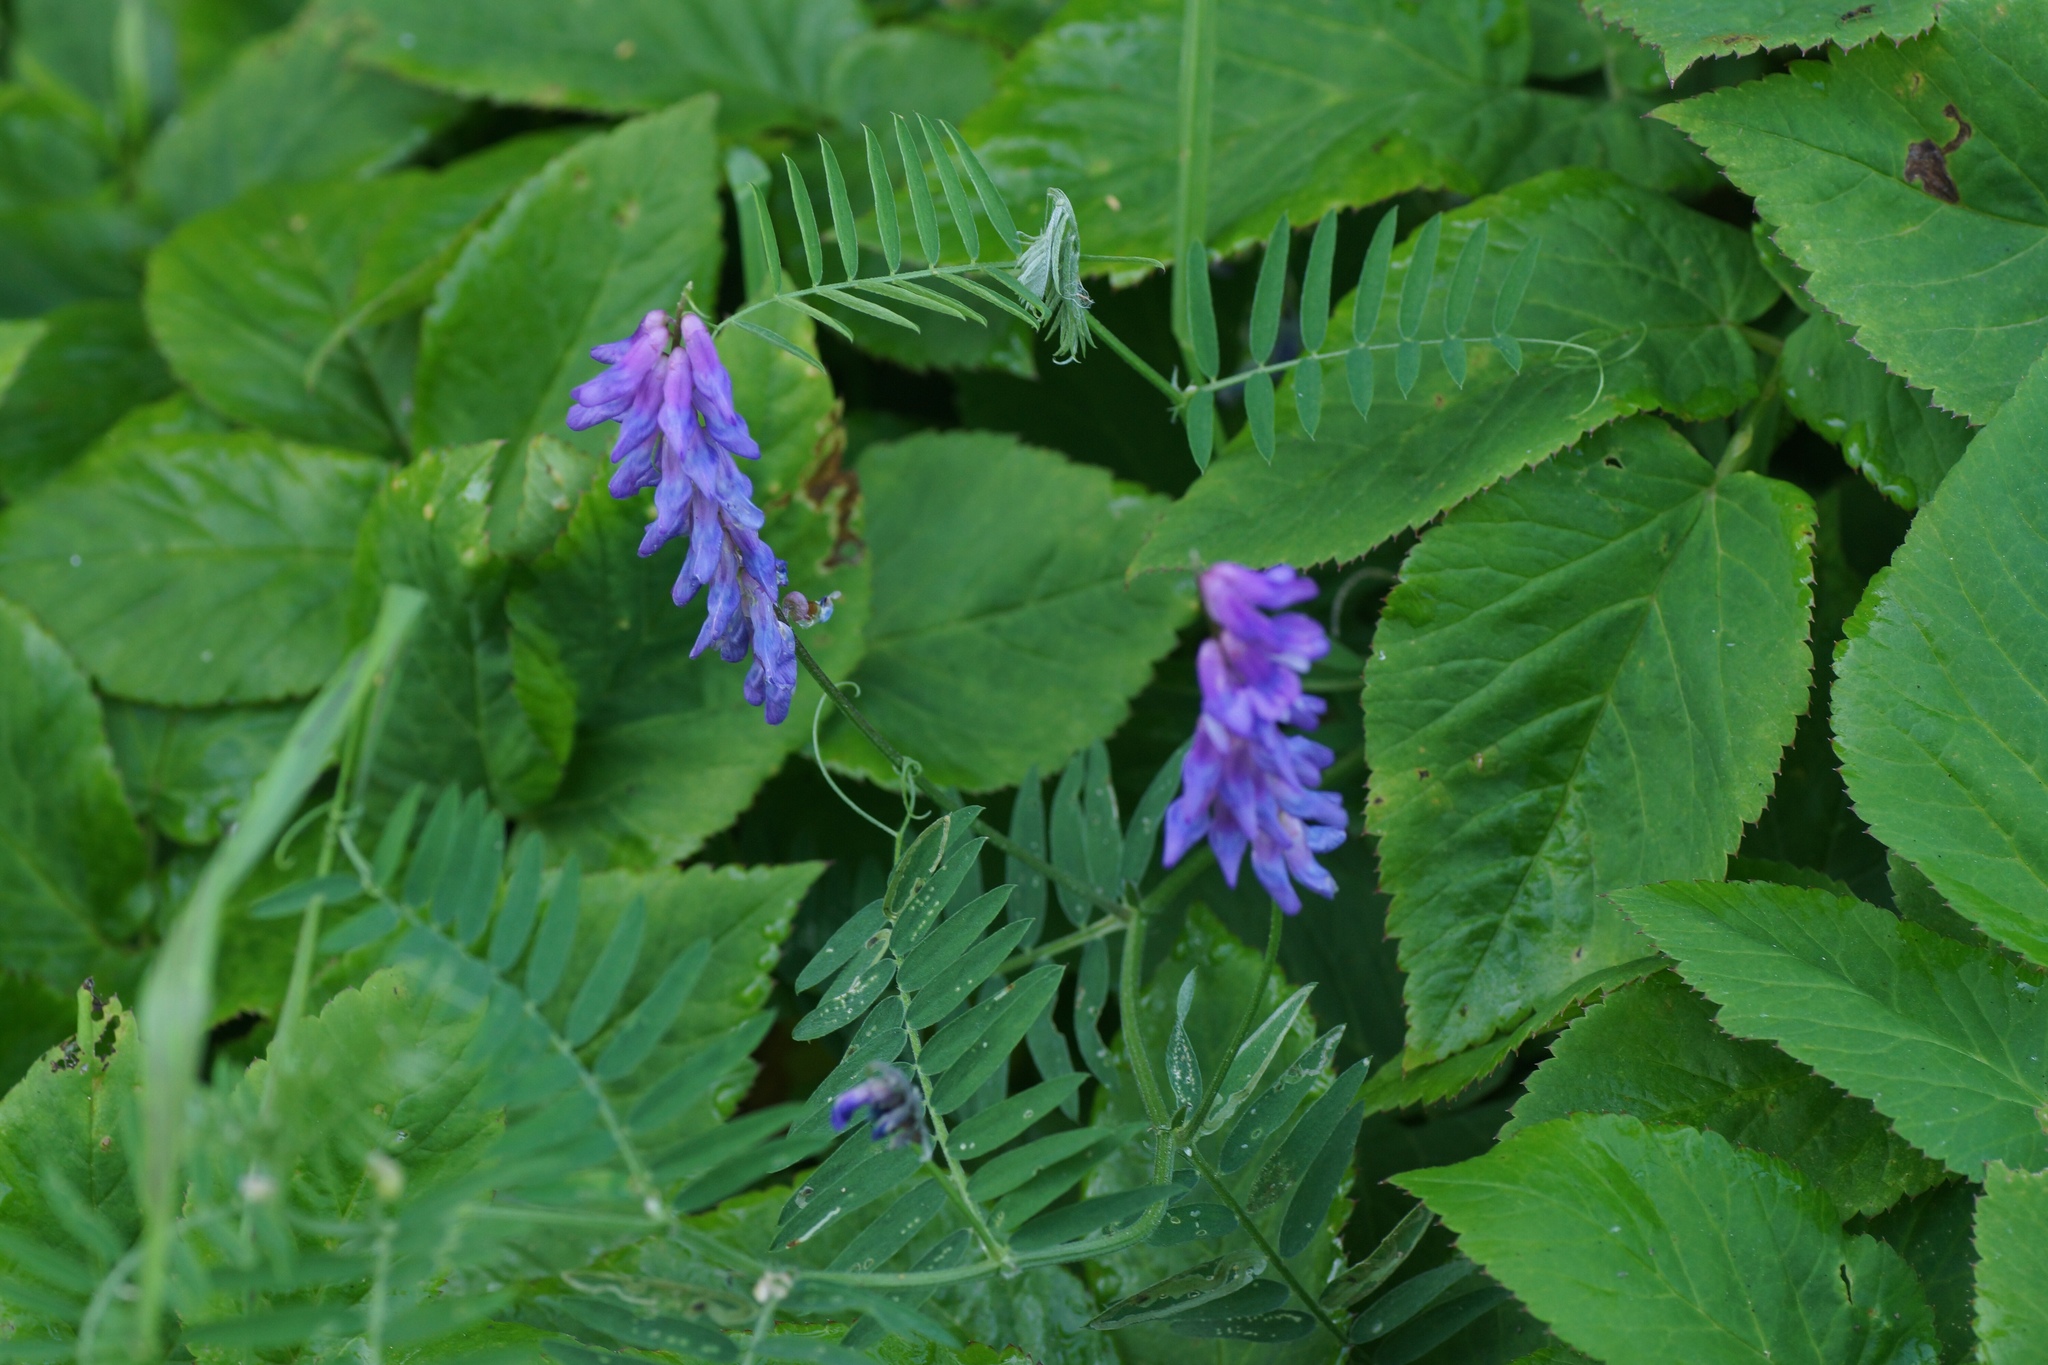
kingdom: Plantae
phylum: Tracheophyta
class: Magnoliopsida
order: Fabales
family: Fabaceae
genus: Vicia
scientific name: Vicia cracca
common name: Bird vetch
